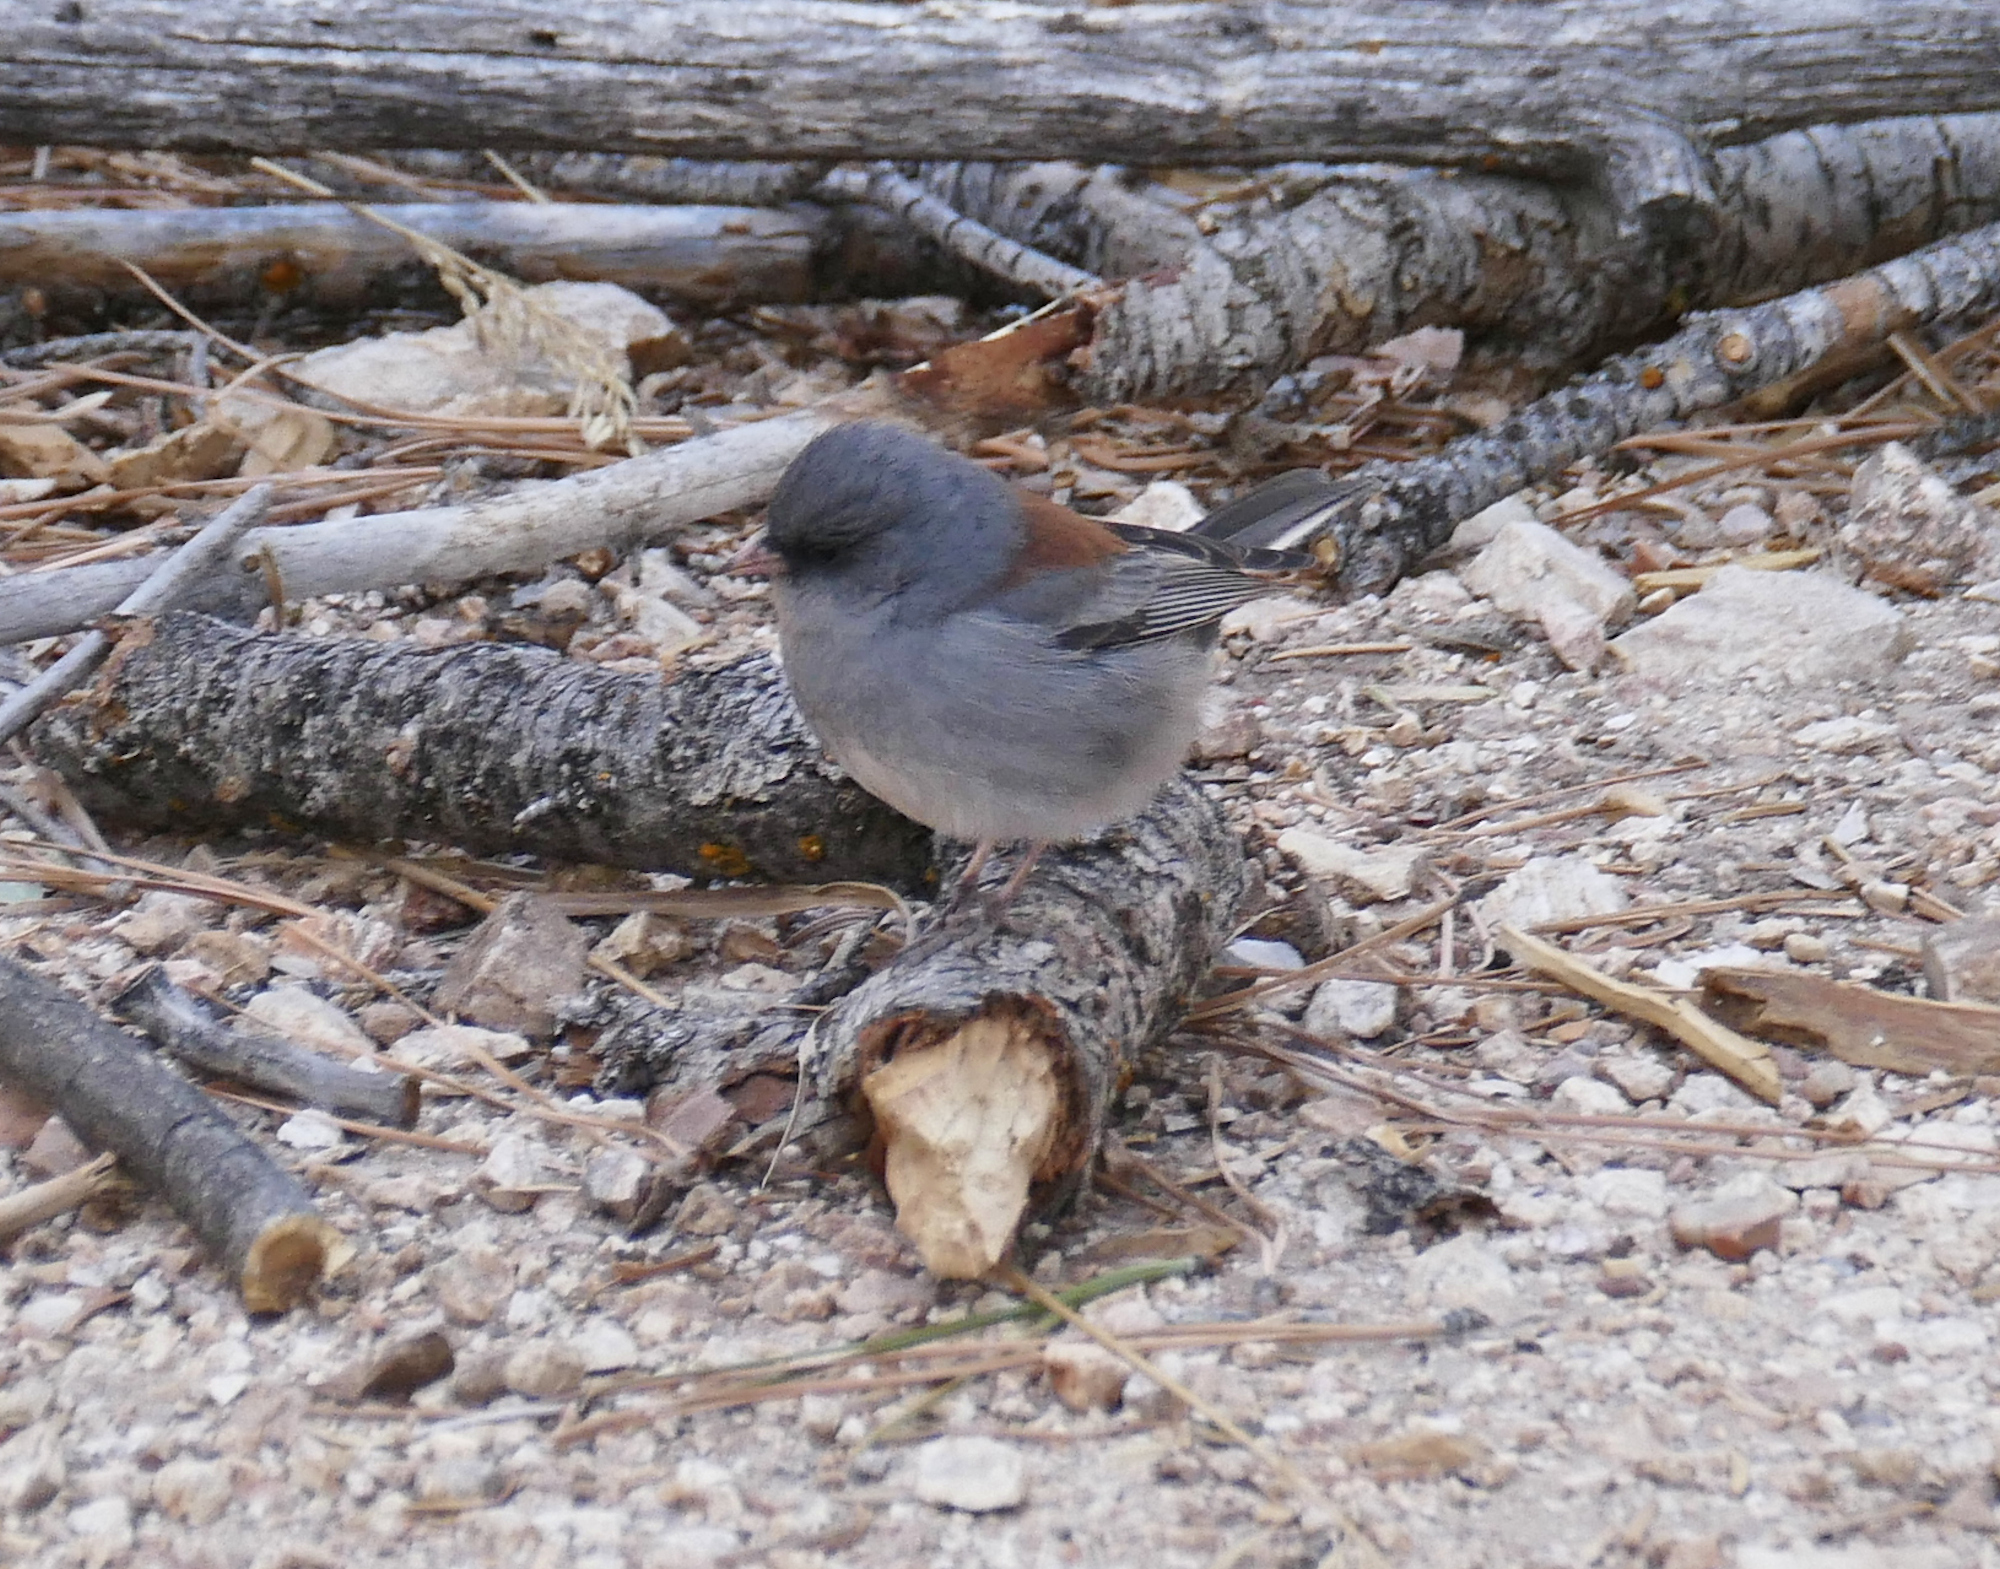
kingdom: Animalia
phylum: Chordata
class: Aves
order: Passeriformes
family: Passerellidae
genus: Junco
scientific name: Junco hyemalis
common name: Dark-eyed junco
